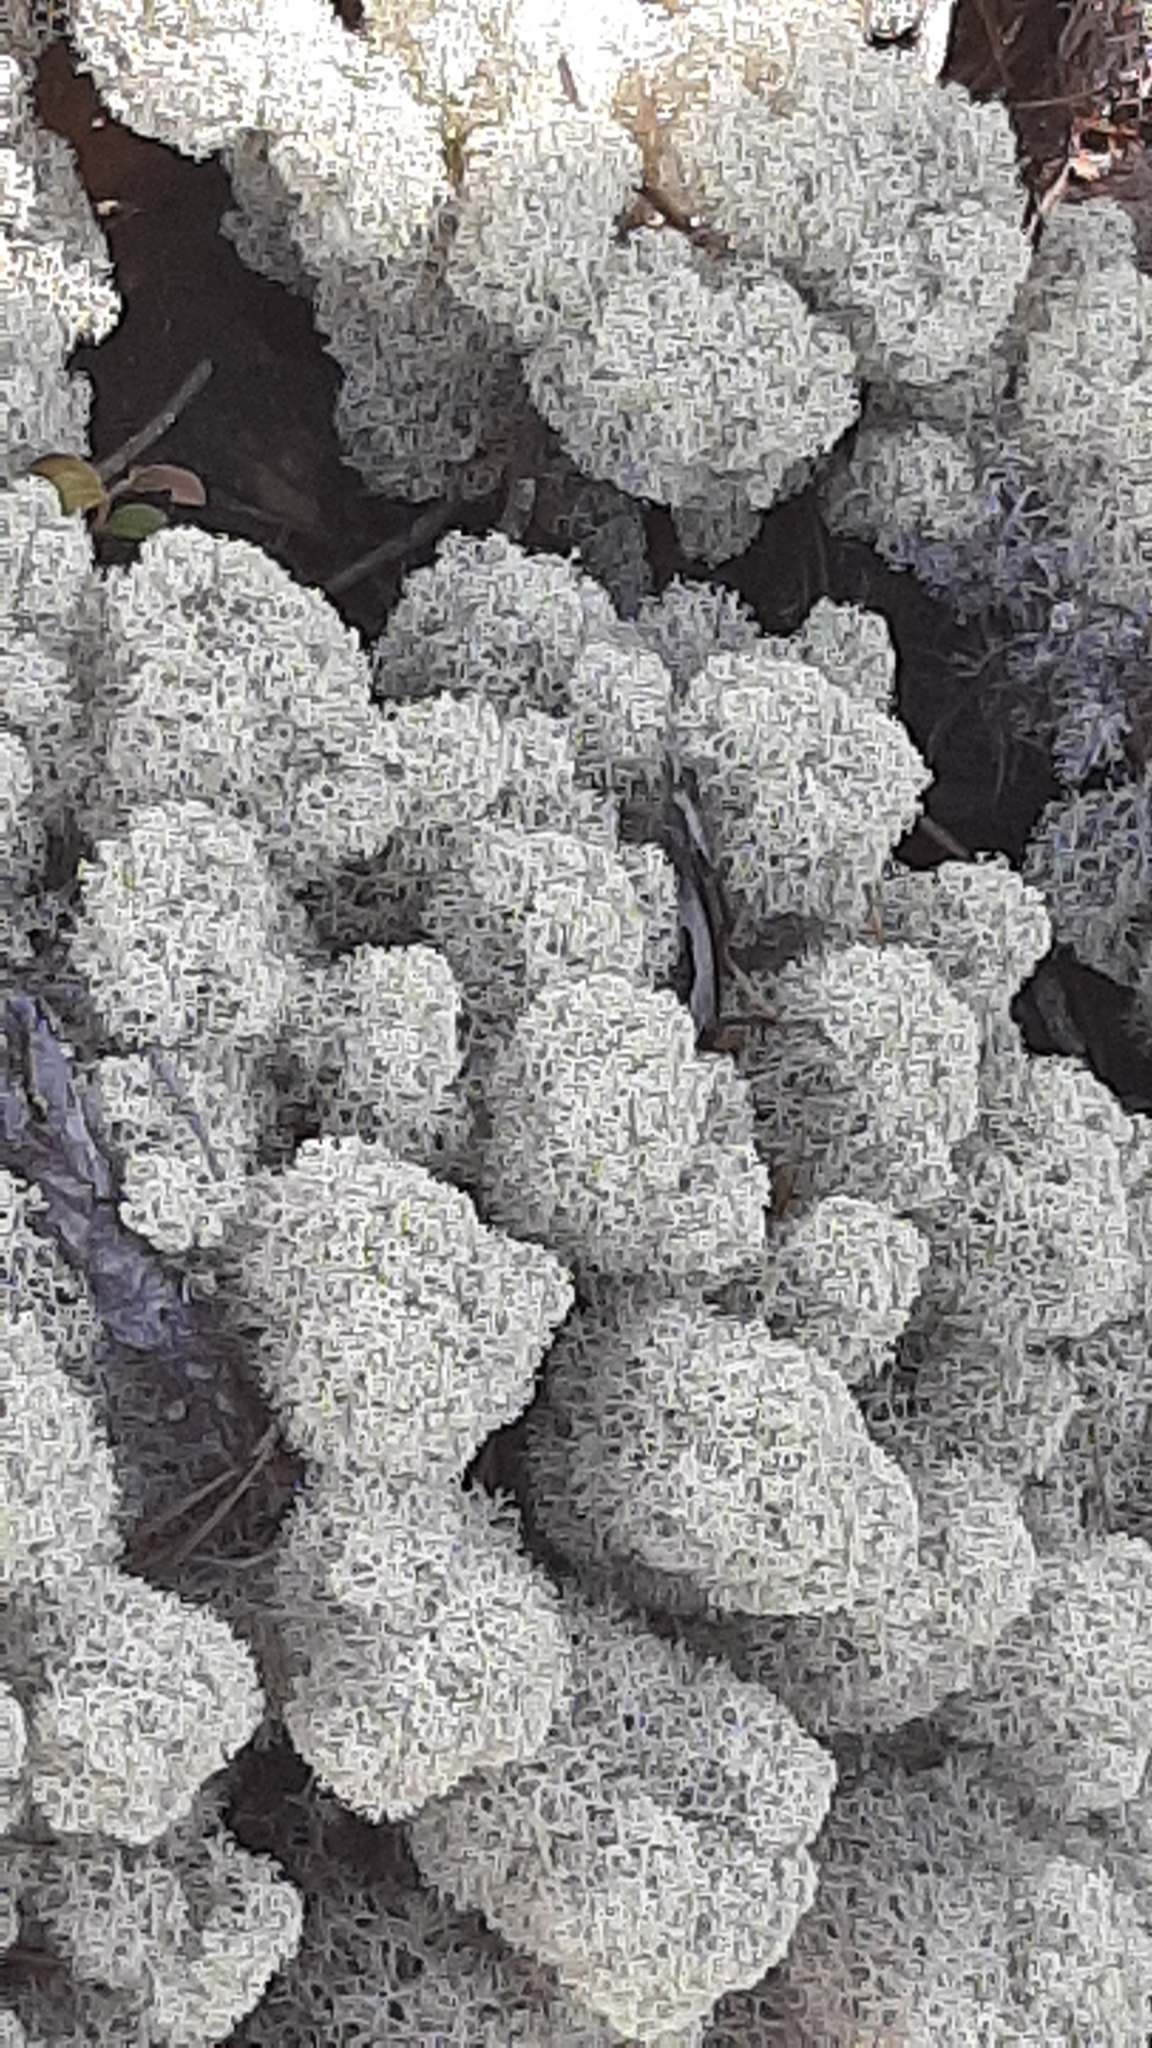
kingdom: Fungi
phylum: Ascomycota
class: Lecanoromycetes
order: Lecanorales
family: Cladoniaceae
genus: Cladonia
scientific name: Cladonia stellaris
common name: Star-tipped reindeer lichen
